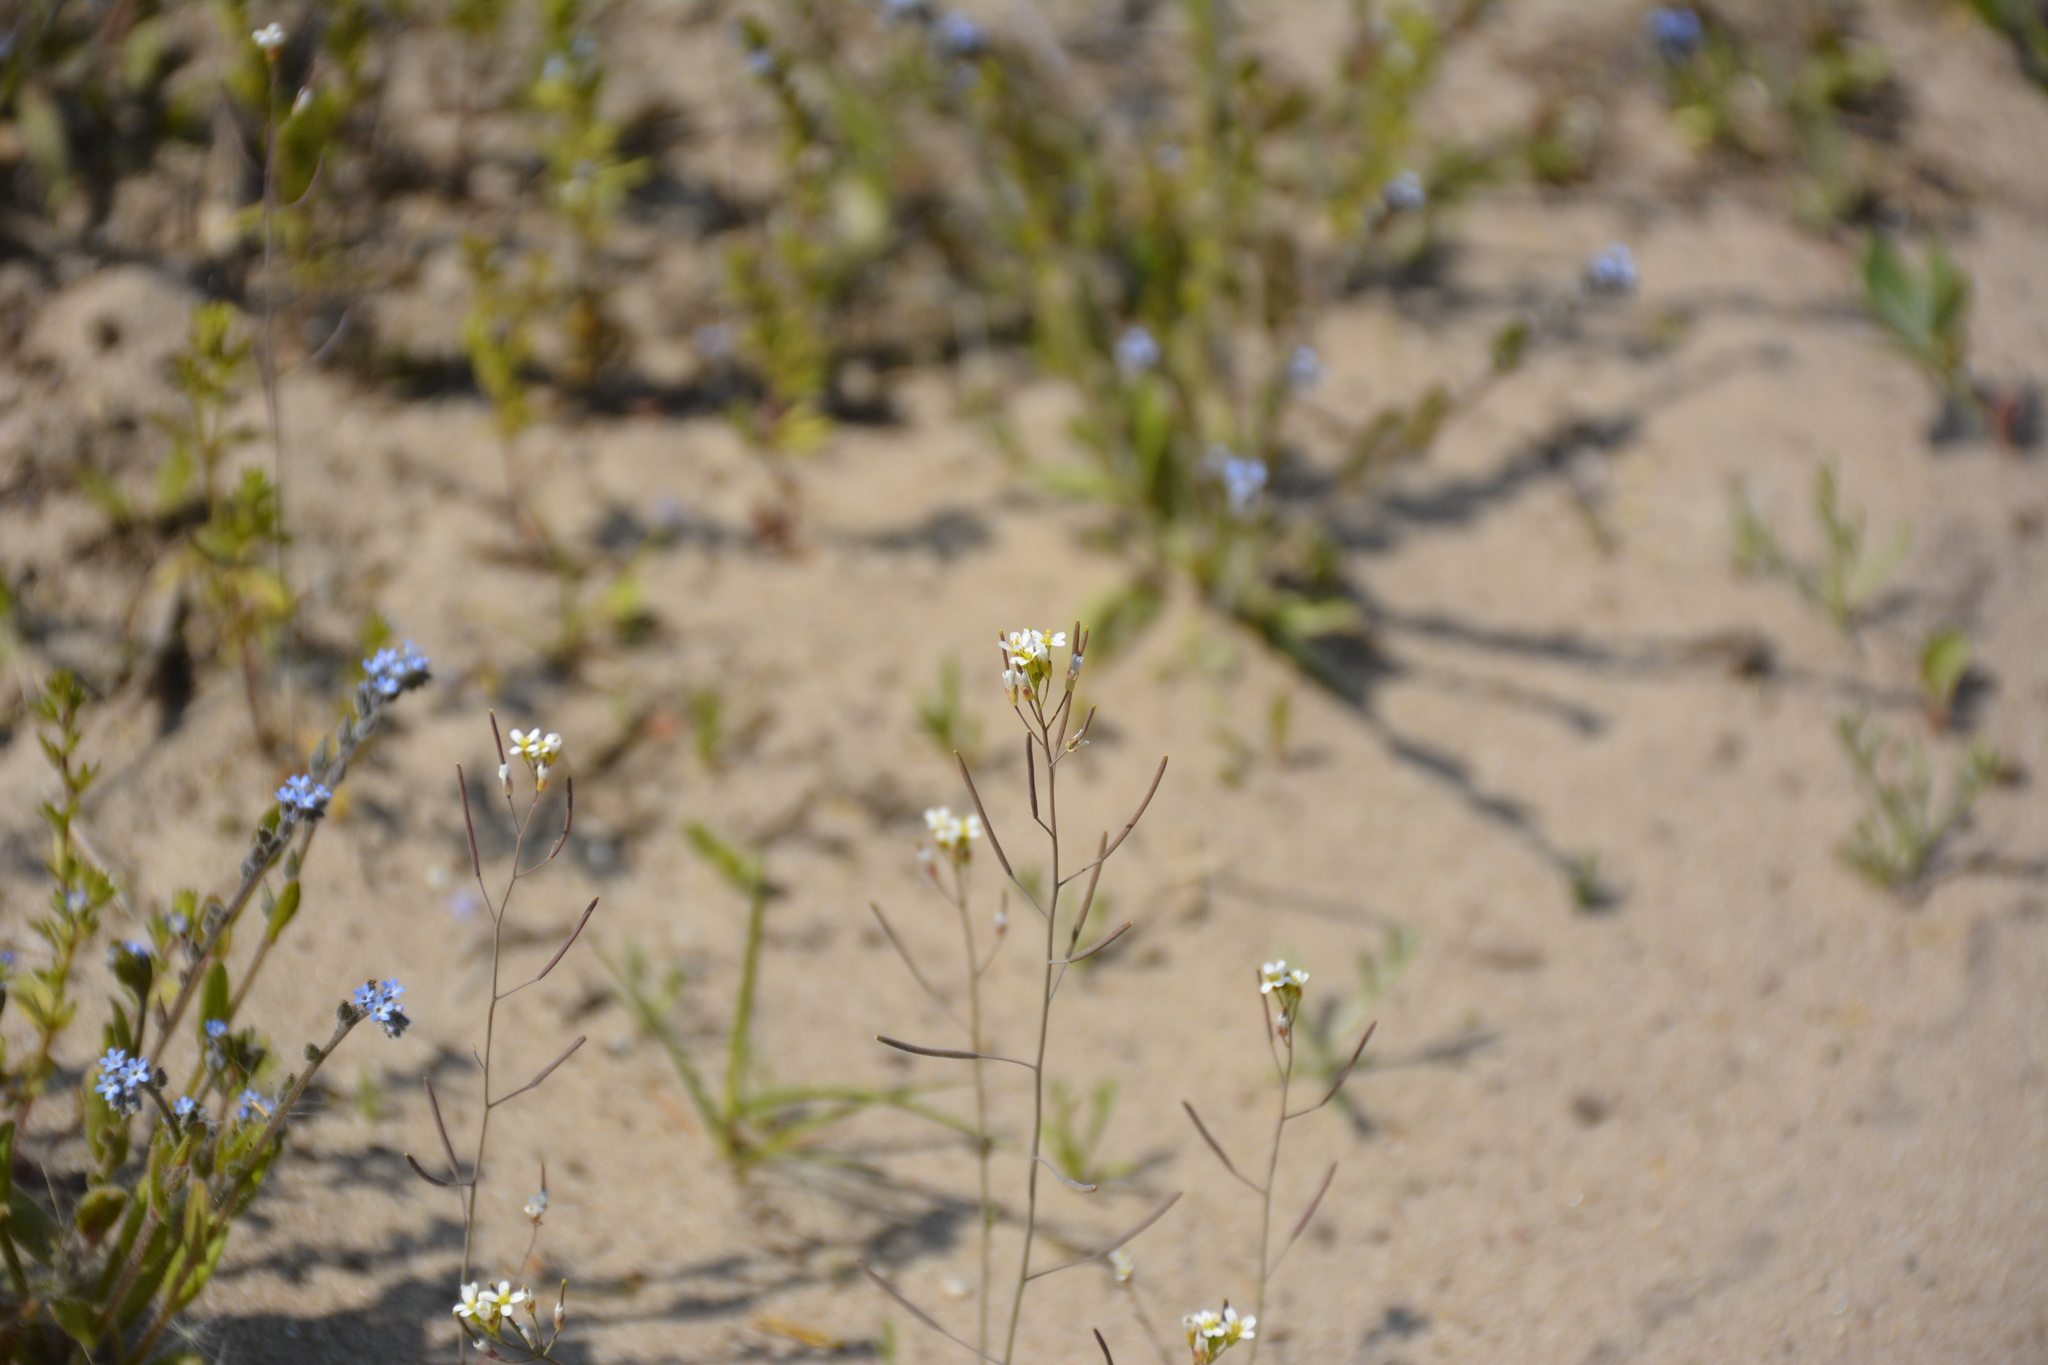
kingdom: Plantae
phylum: Tracheophyta
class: Magnoliopsida
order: Brassicales
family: Brassicaceae
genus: Arabidopsis
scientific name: Arabidopsis thaliana
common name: Thale cress
